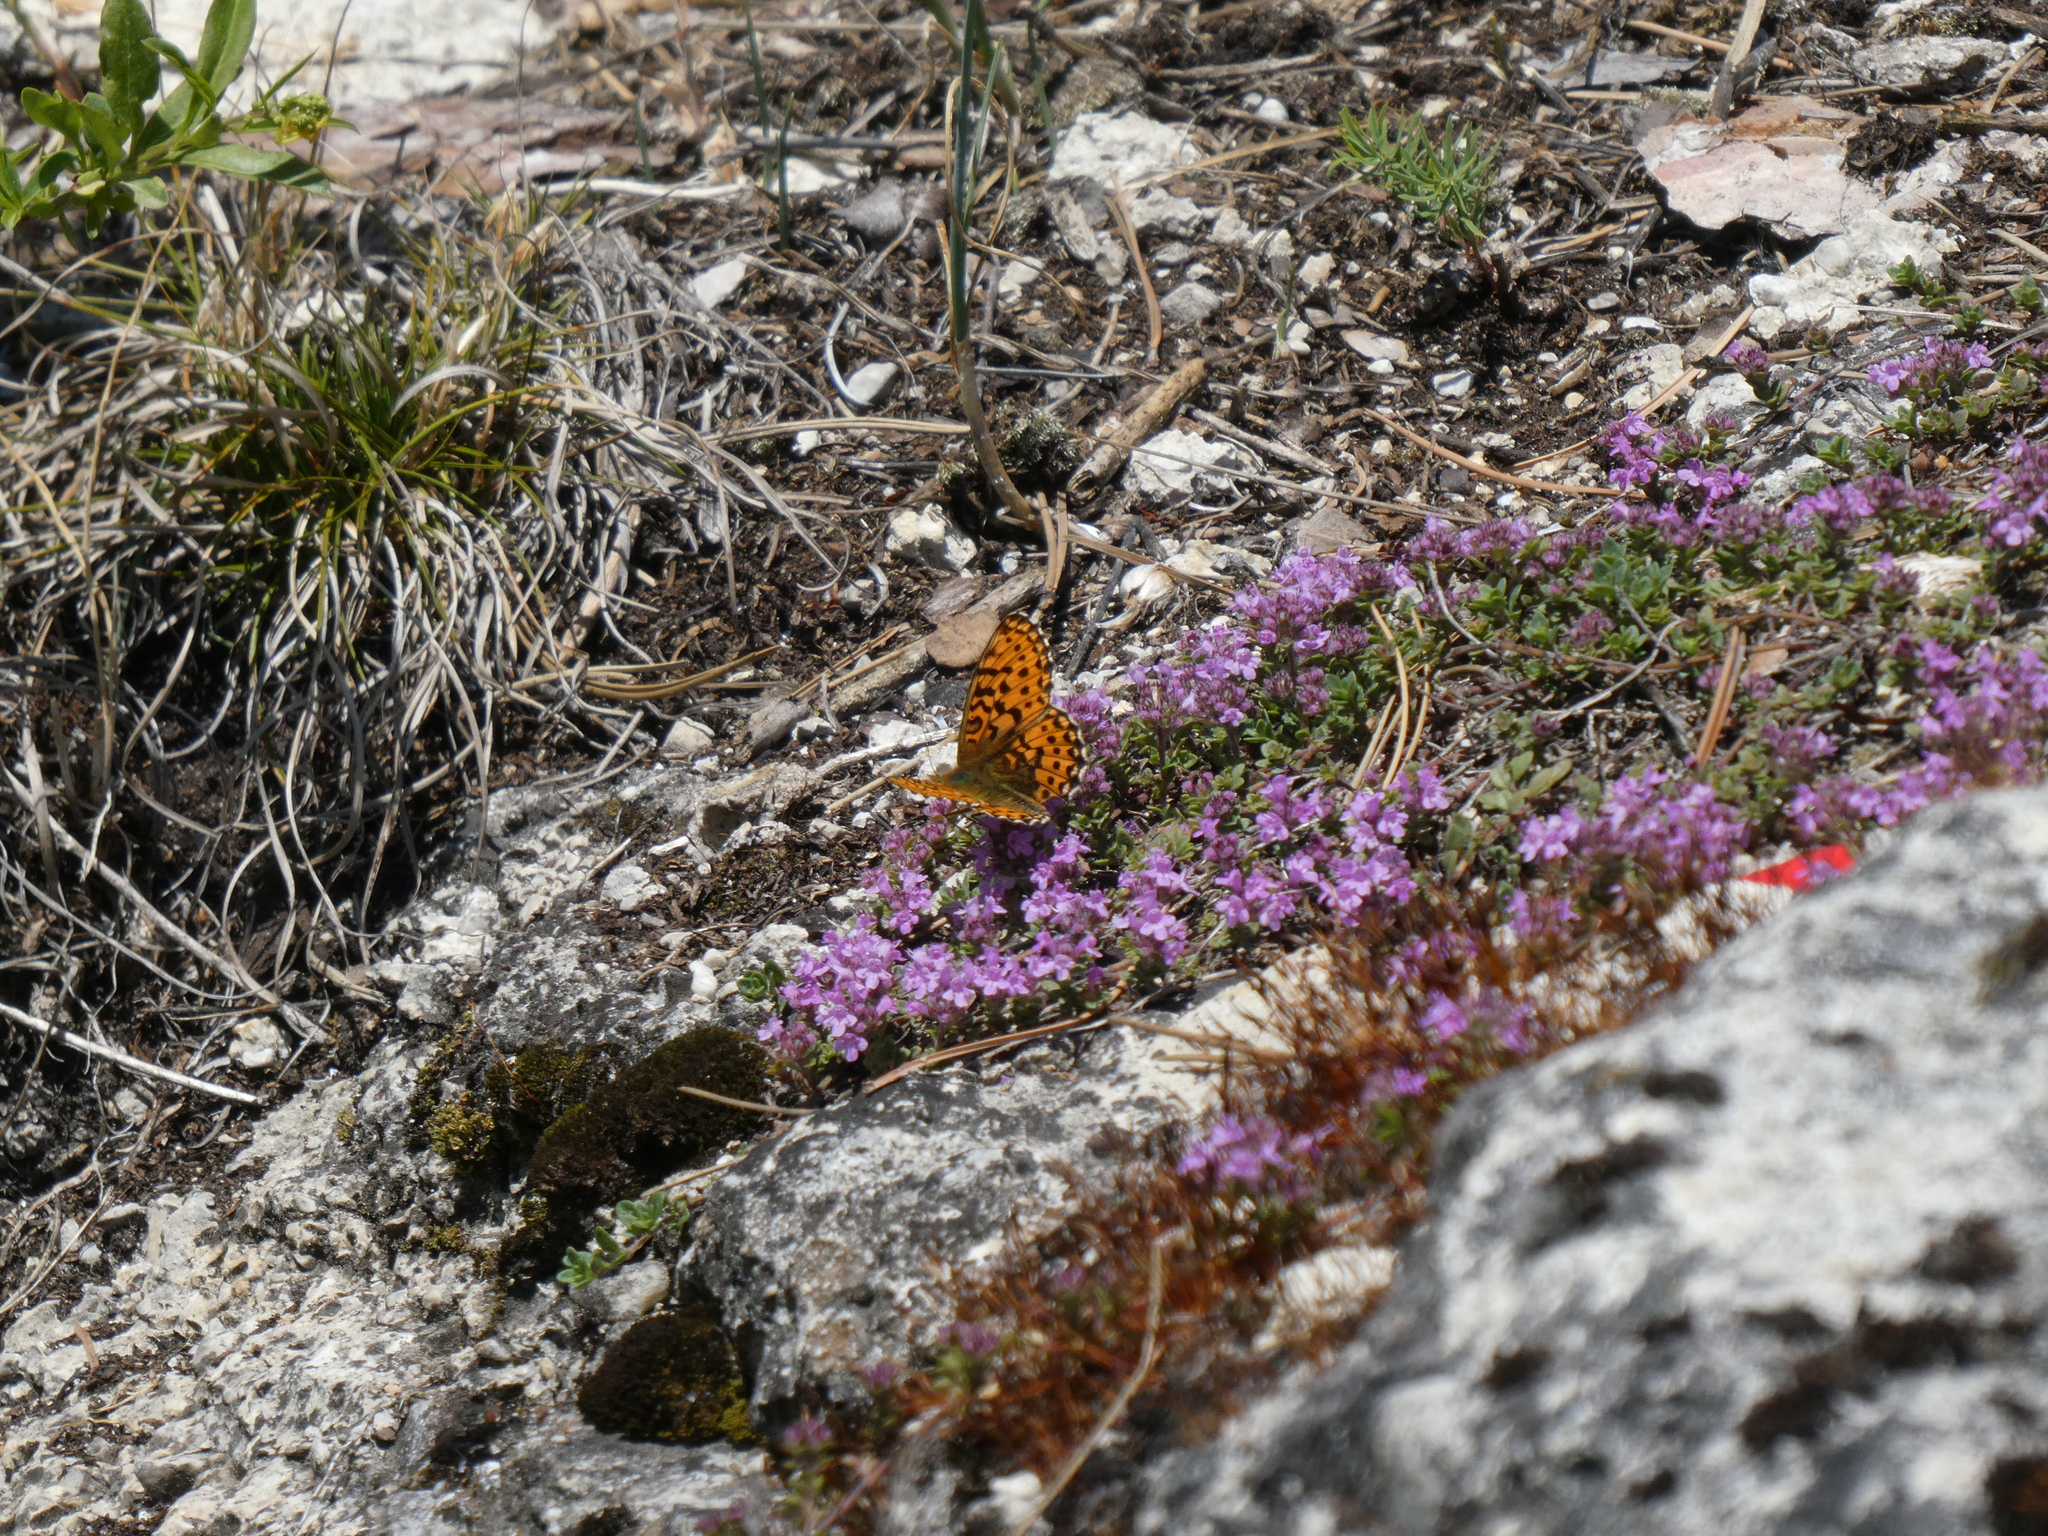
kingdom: Animalia
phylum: Arthropoda
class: Insecta
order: Lepidoptera
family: Nymphalidae
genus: Clossiana
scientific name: Clossiana euphrosyne
